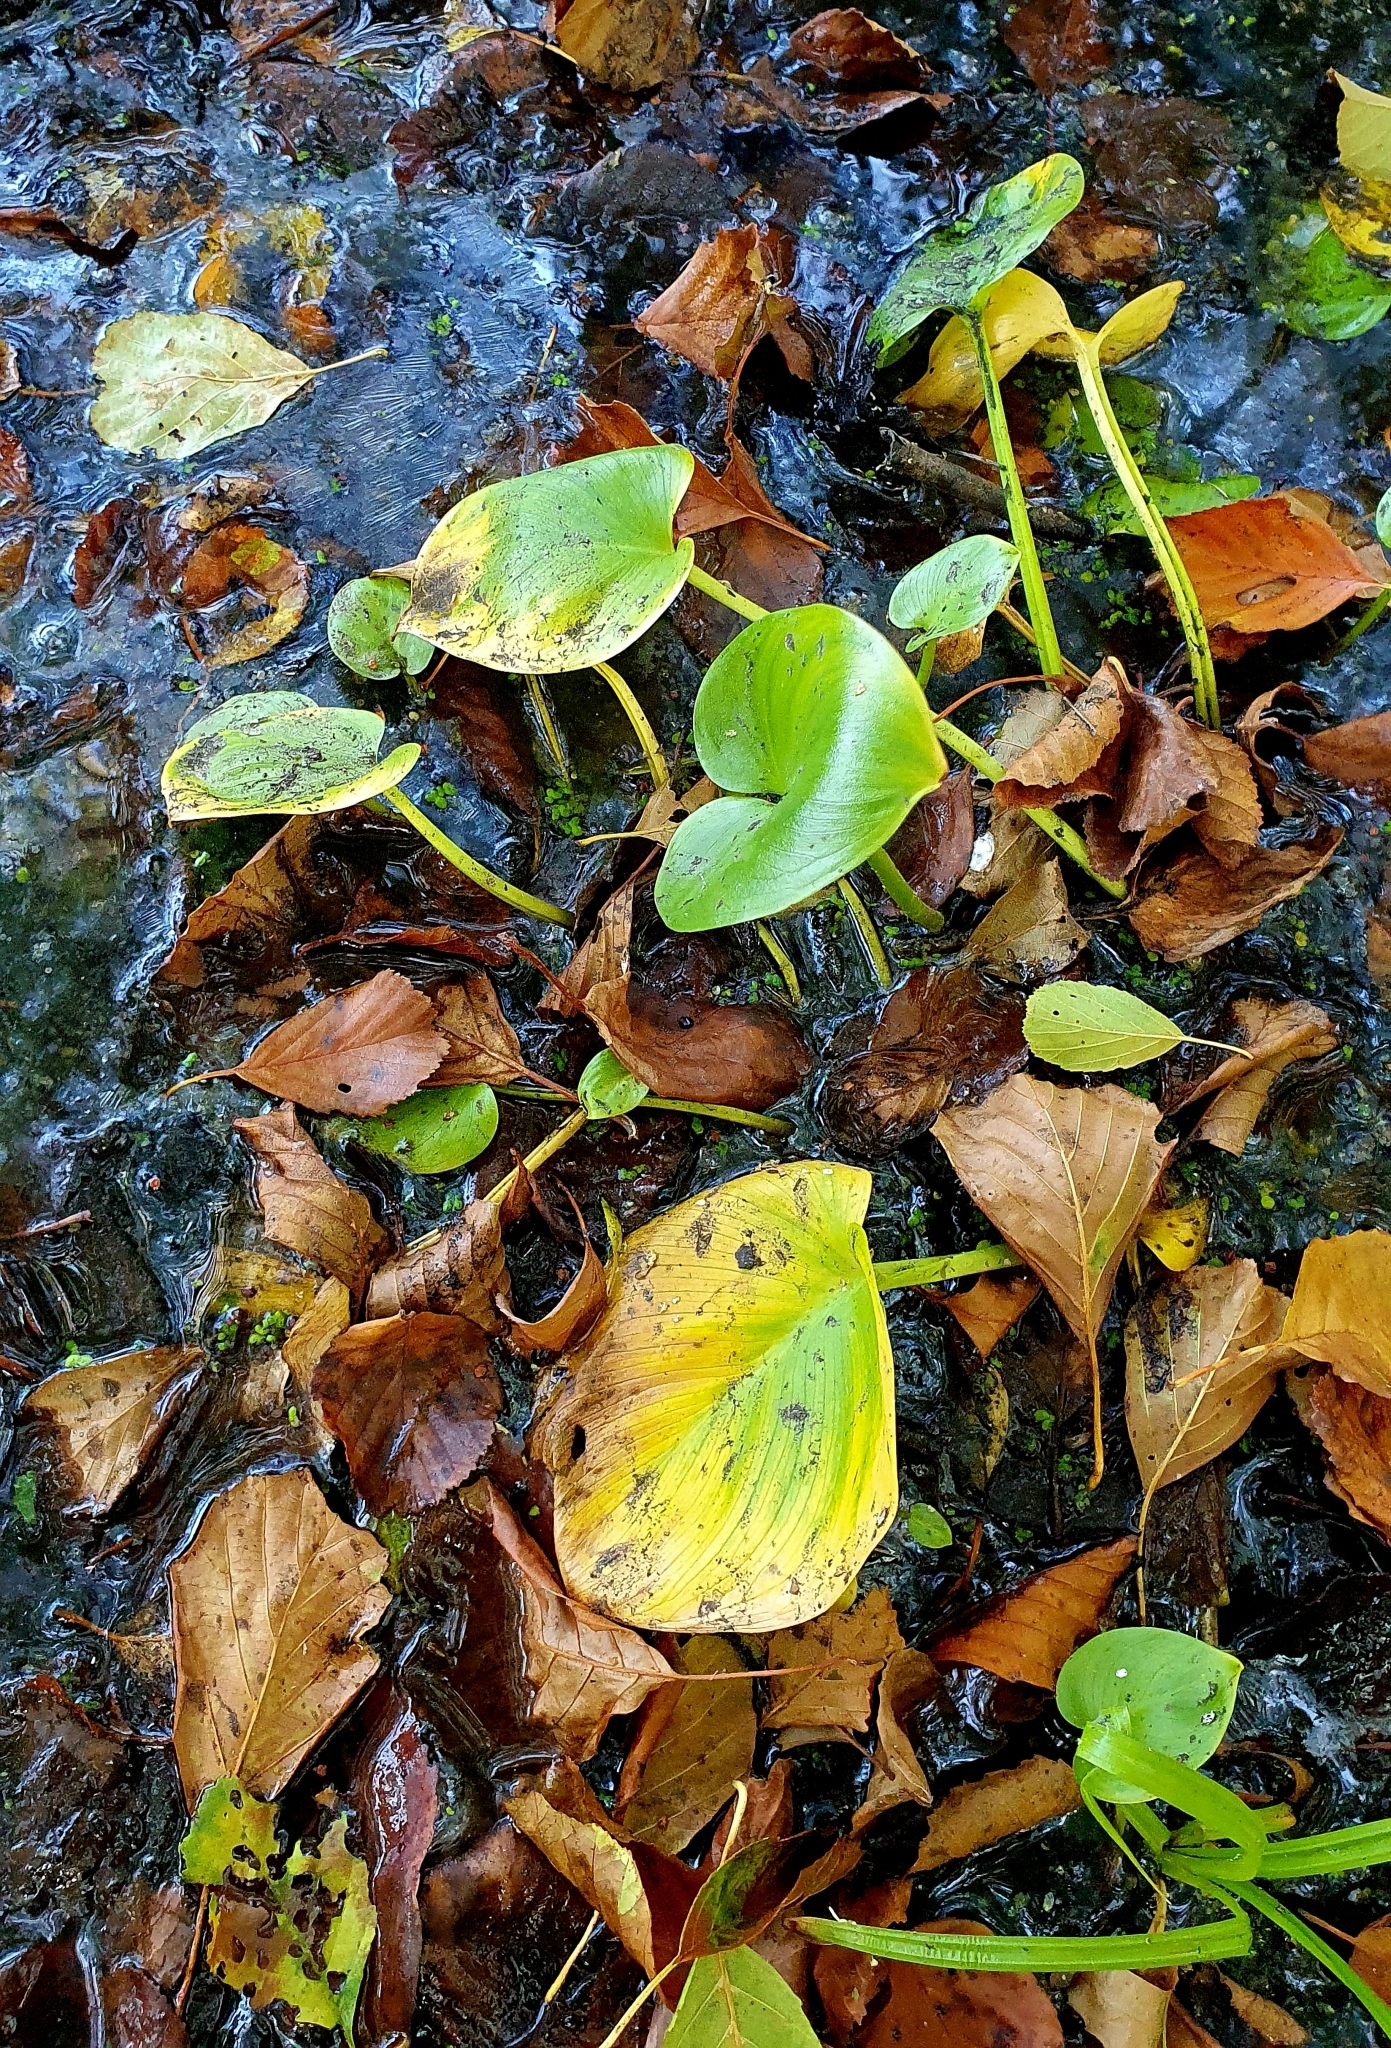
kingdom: Plantae
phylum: Tracheophyta
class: Liliopsida
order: Alismatales
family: Araceae
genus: Calla
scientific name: Calla palustris
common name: Bog arum
